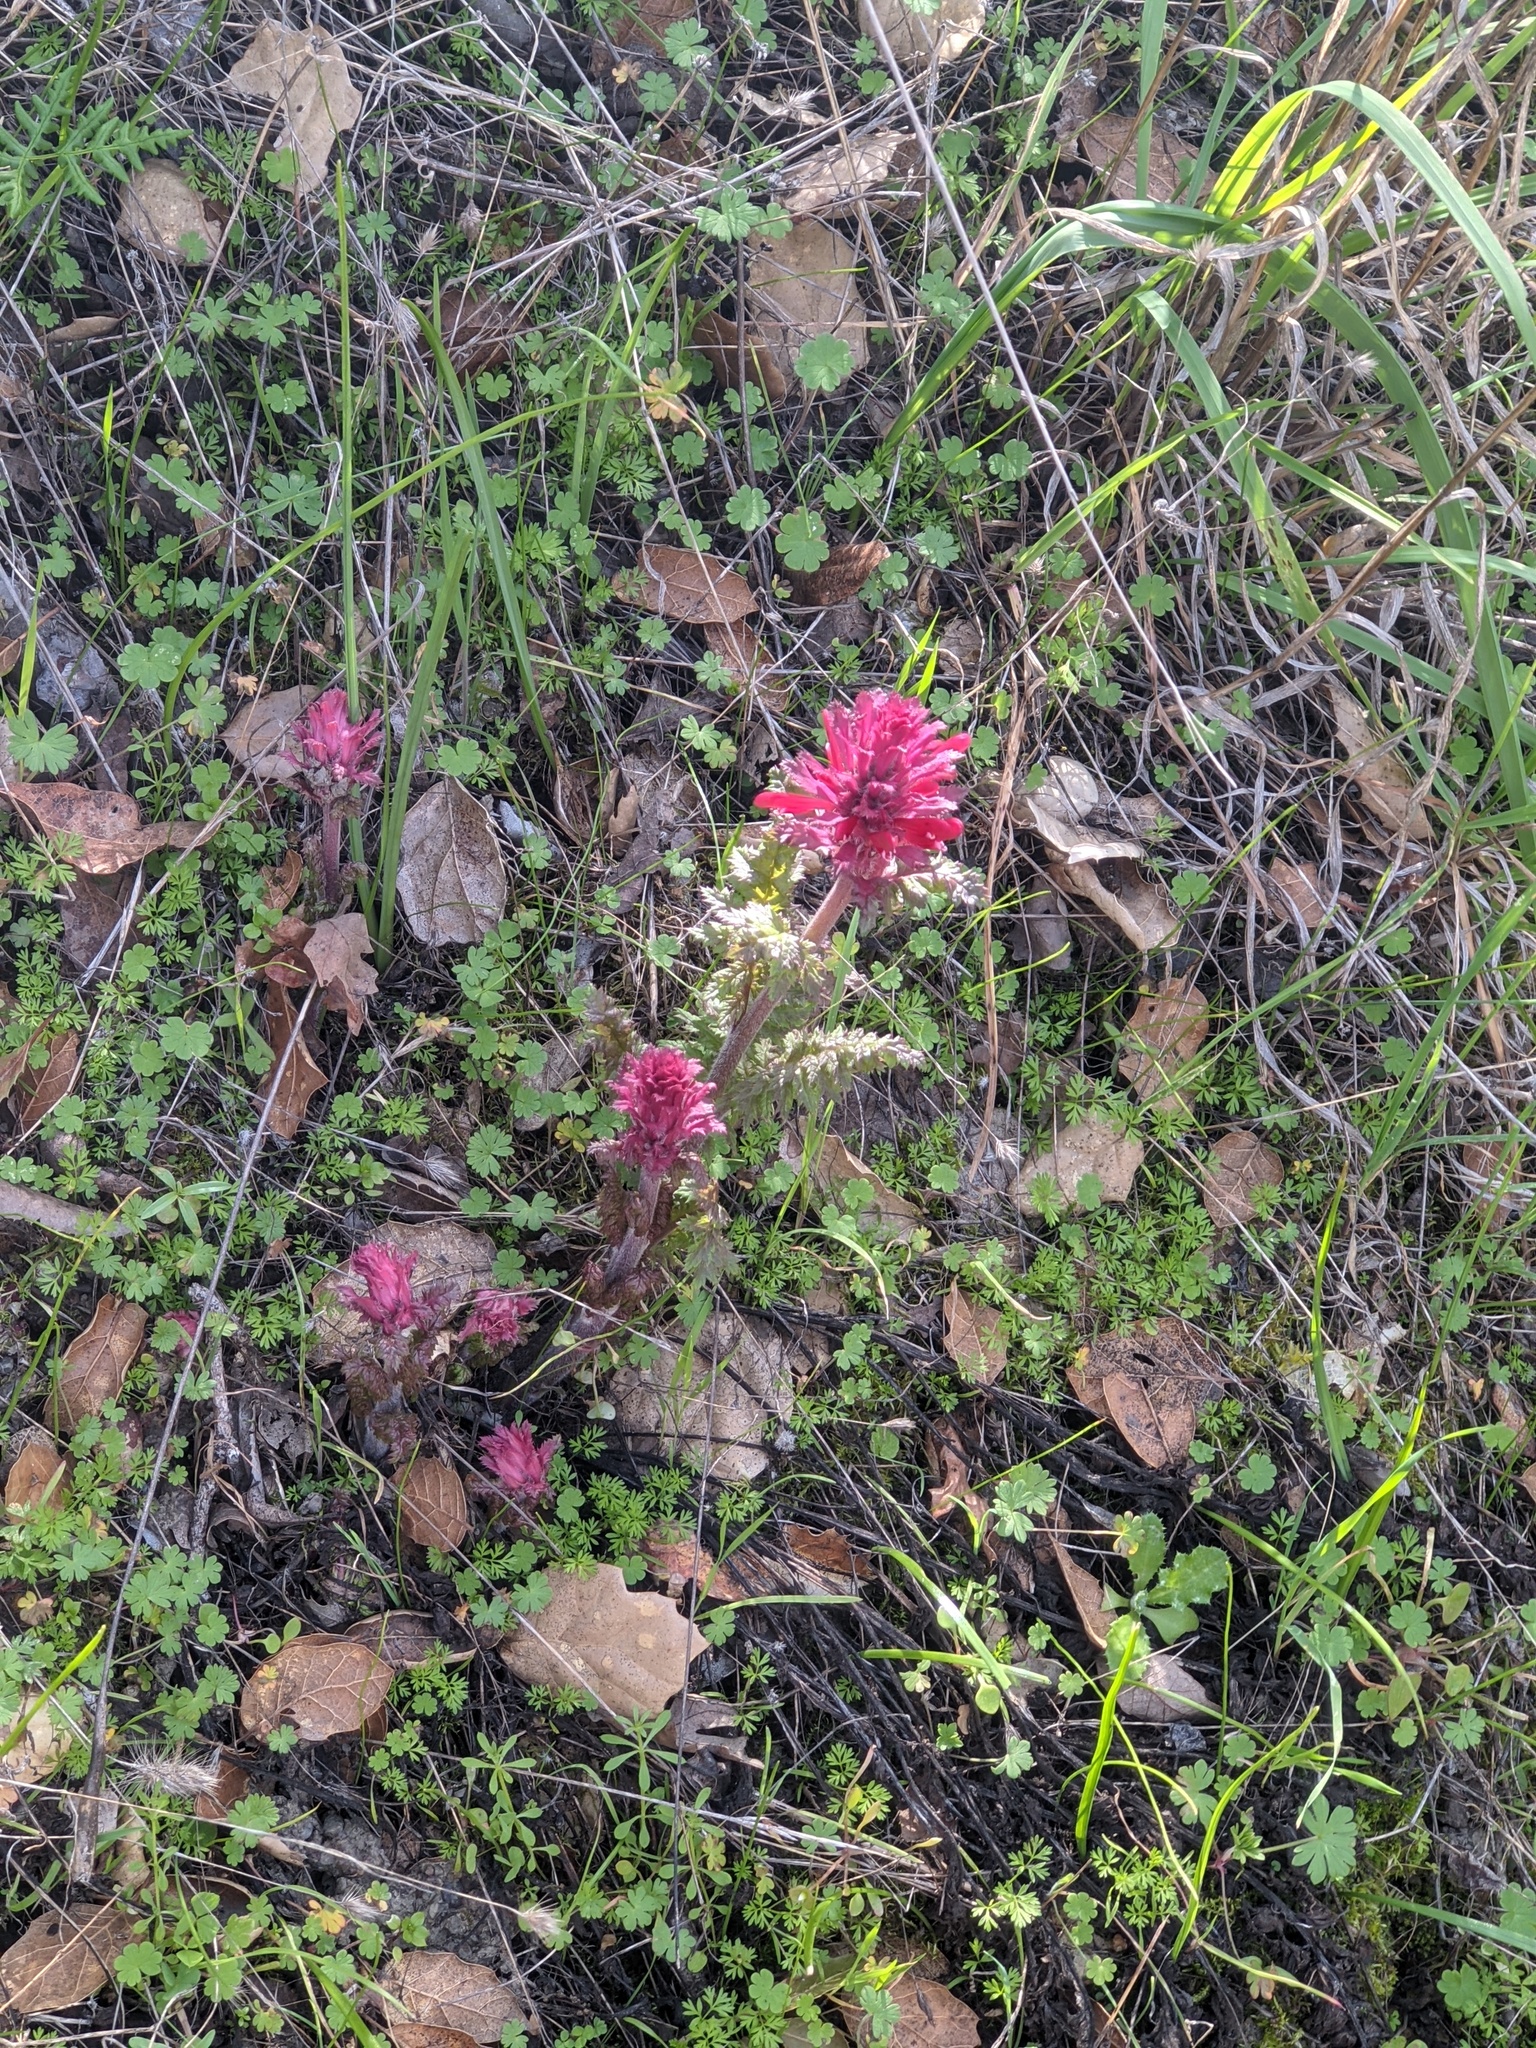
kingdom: Plantae
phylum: Tracheophyta
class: Magnoliopsida
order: Lamiales
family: Orobanchaceae
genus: Pedicularis
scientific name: Pedicularis densiflora
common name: Indian warrior
